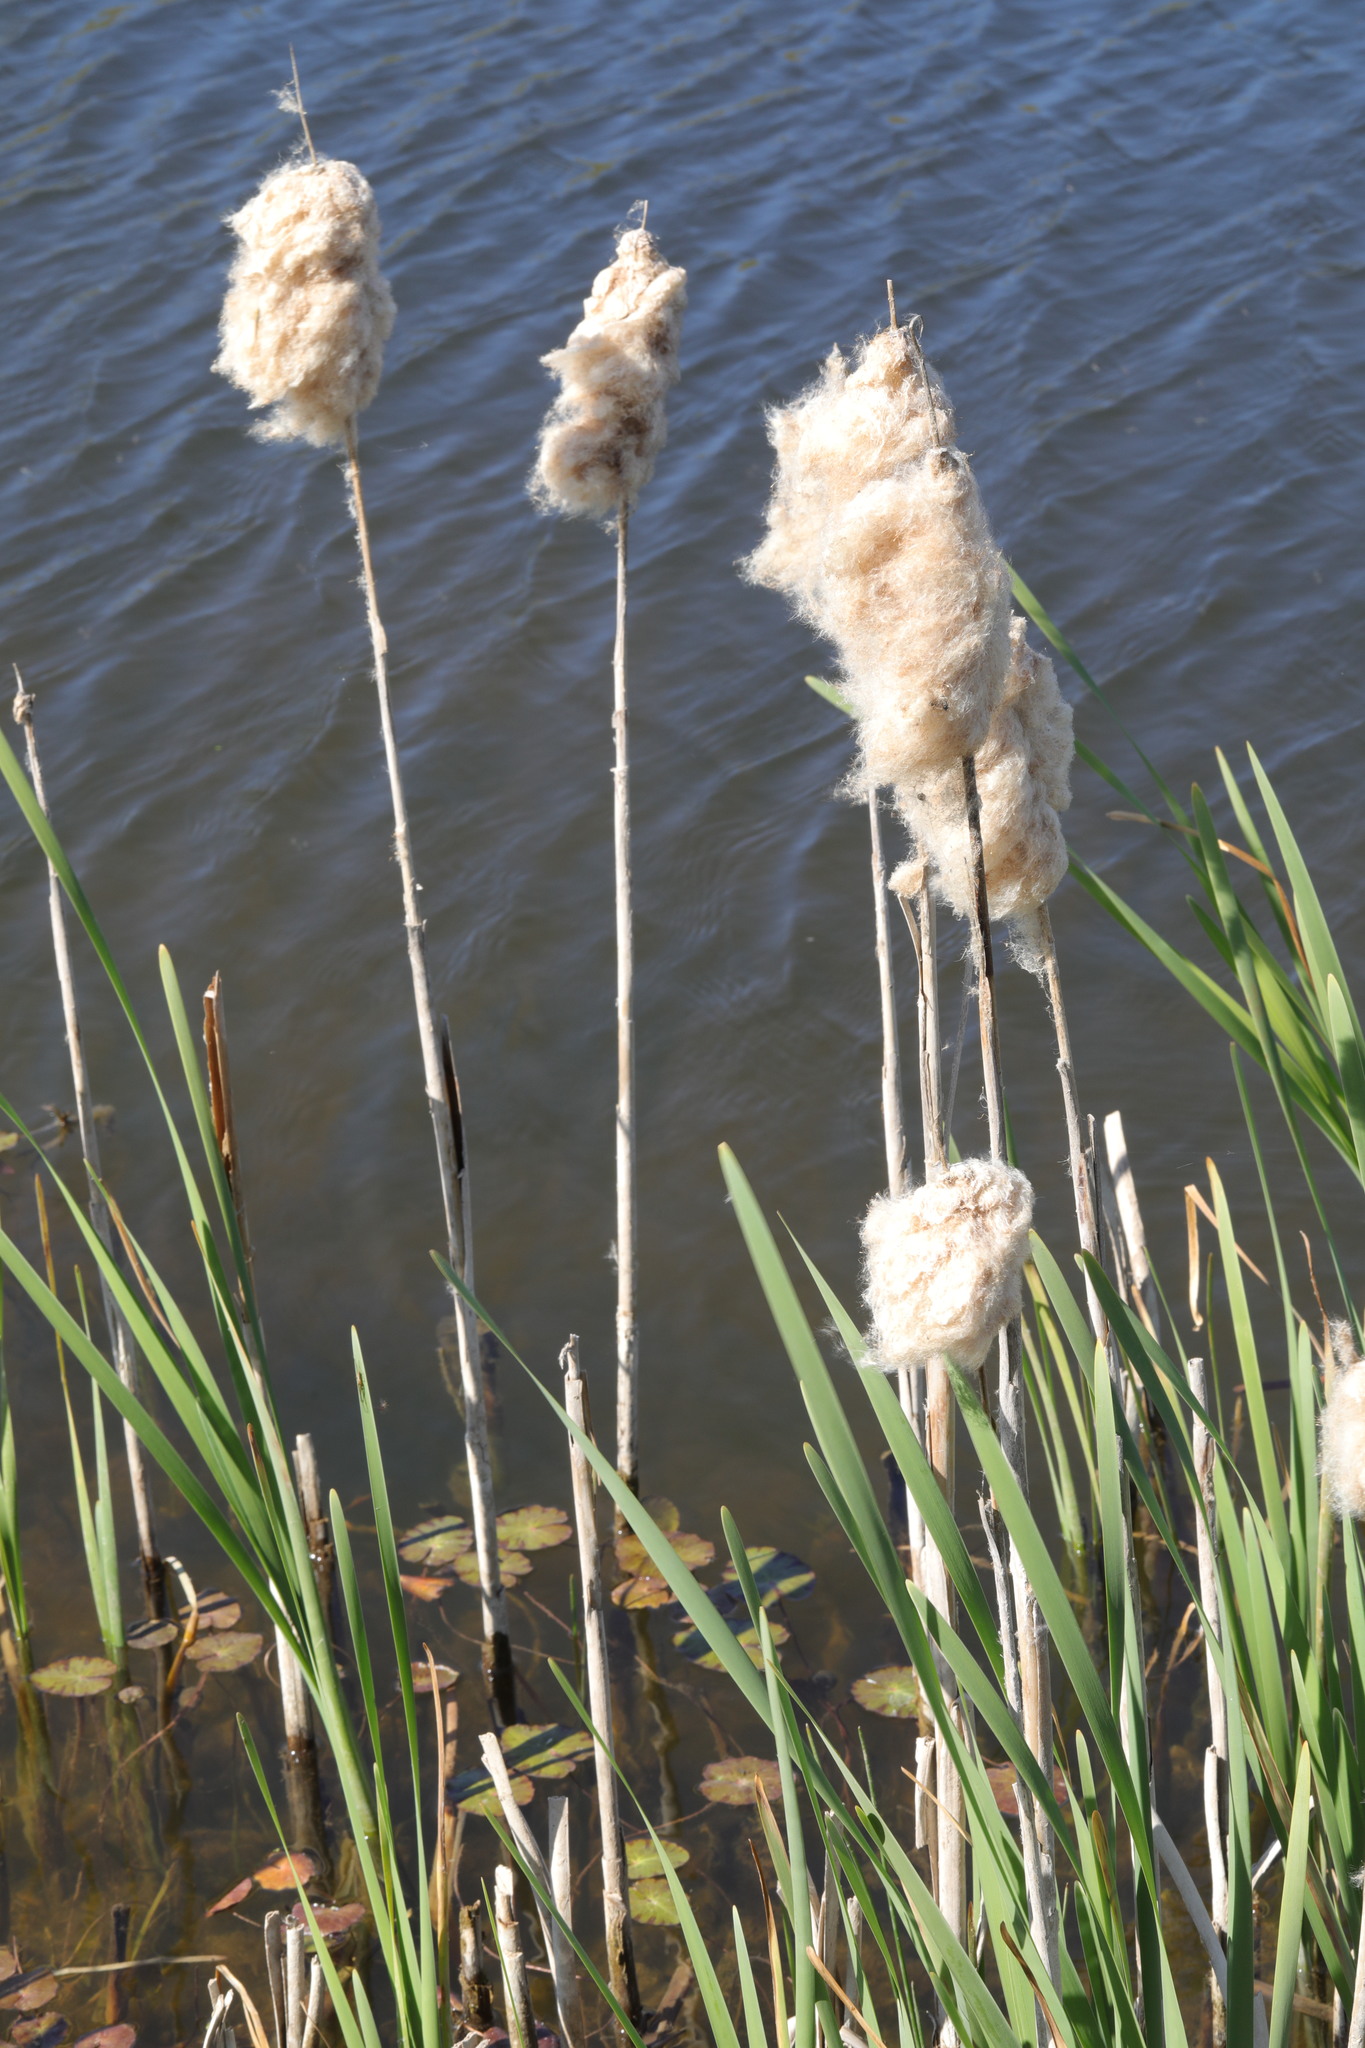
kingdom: Plantae
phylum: Tracheophyta
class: Liliopsida
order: Poales
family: Typhaceae
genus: Typha
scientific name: Typha latifolia
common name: Broadleaf cattail
